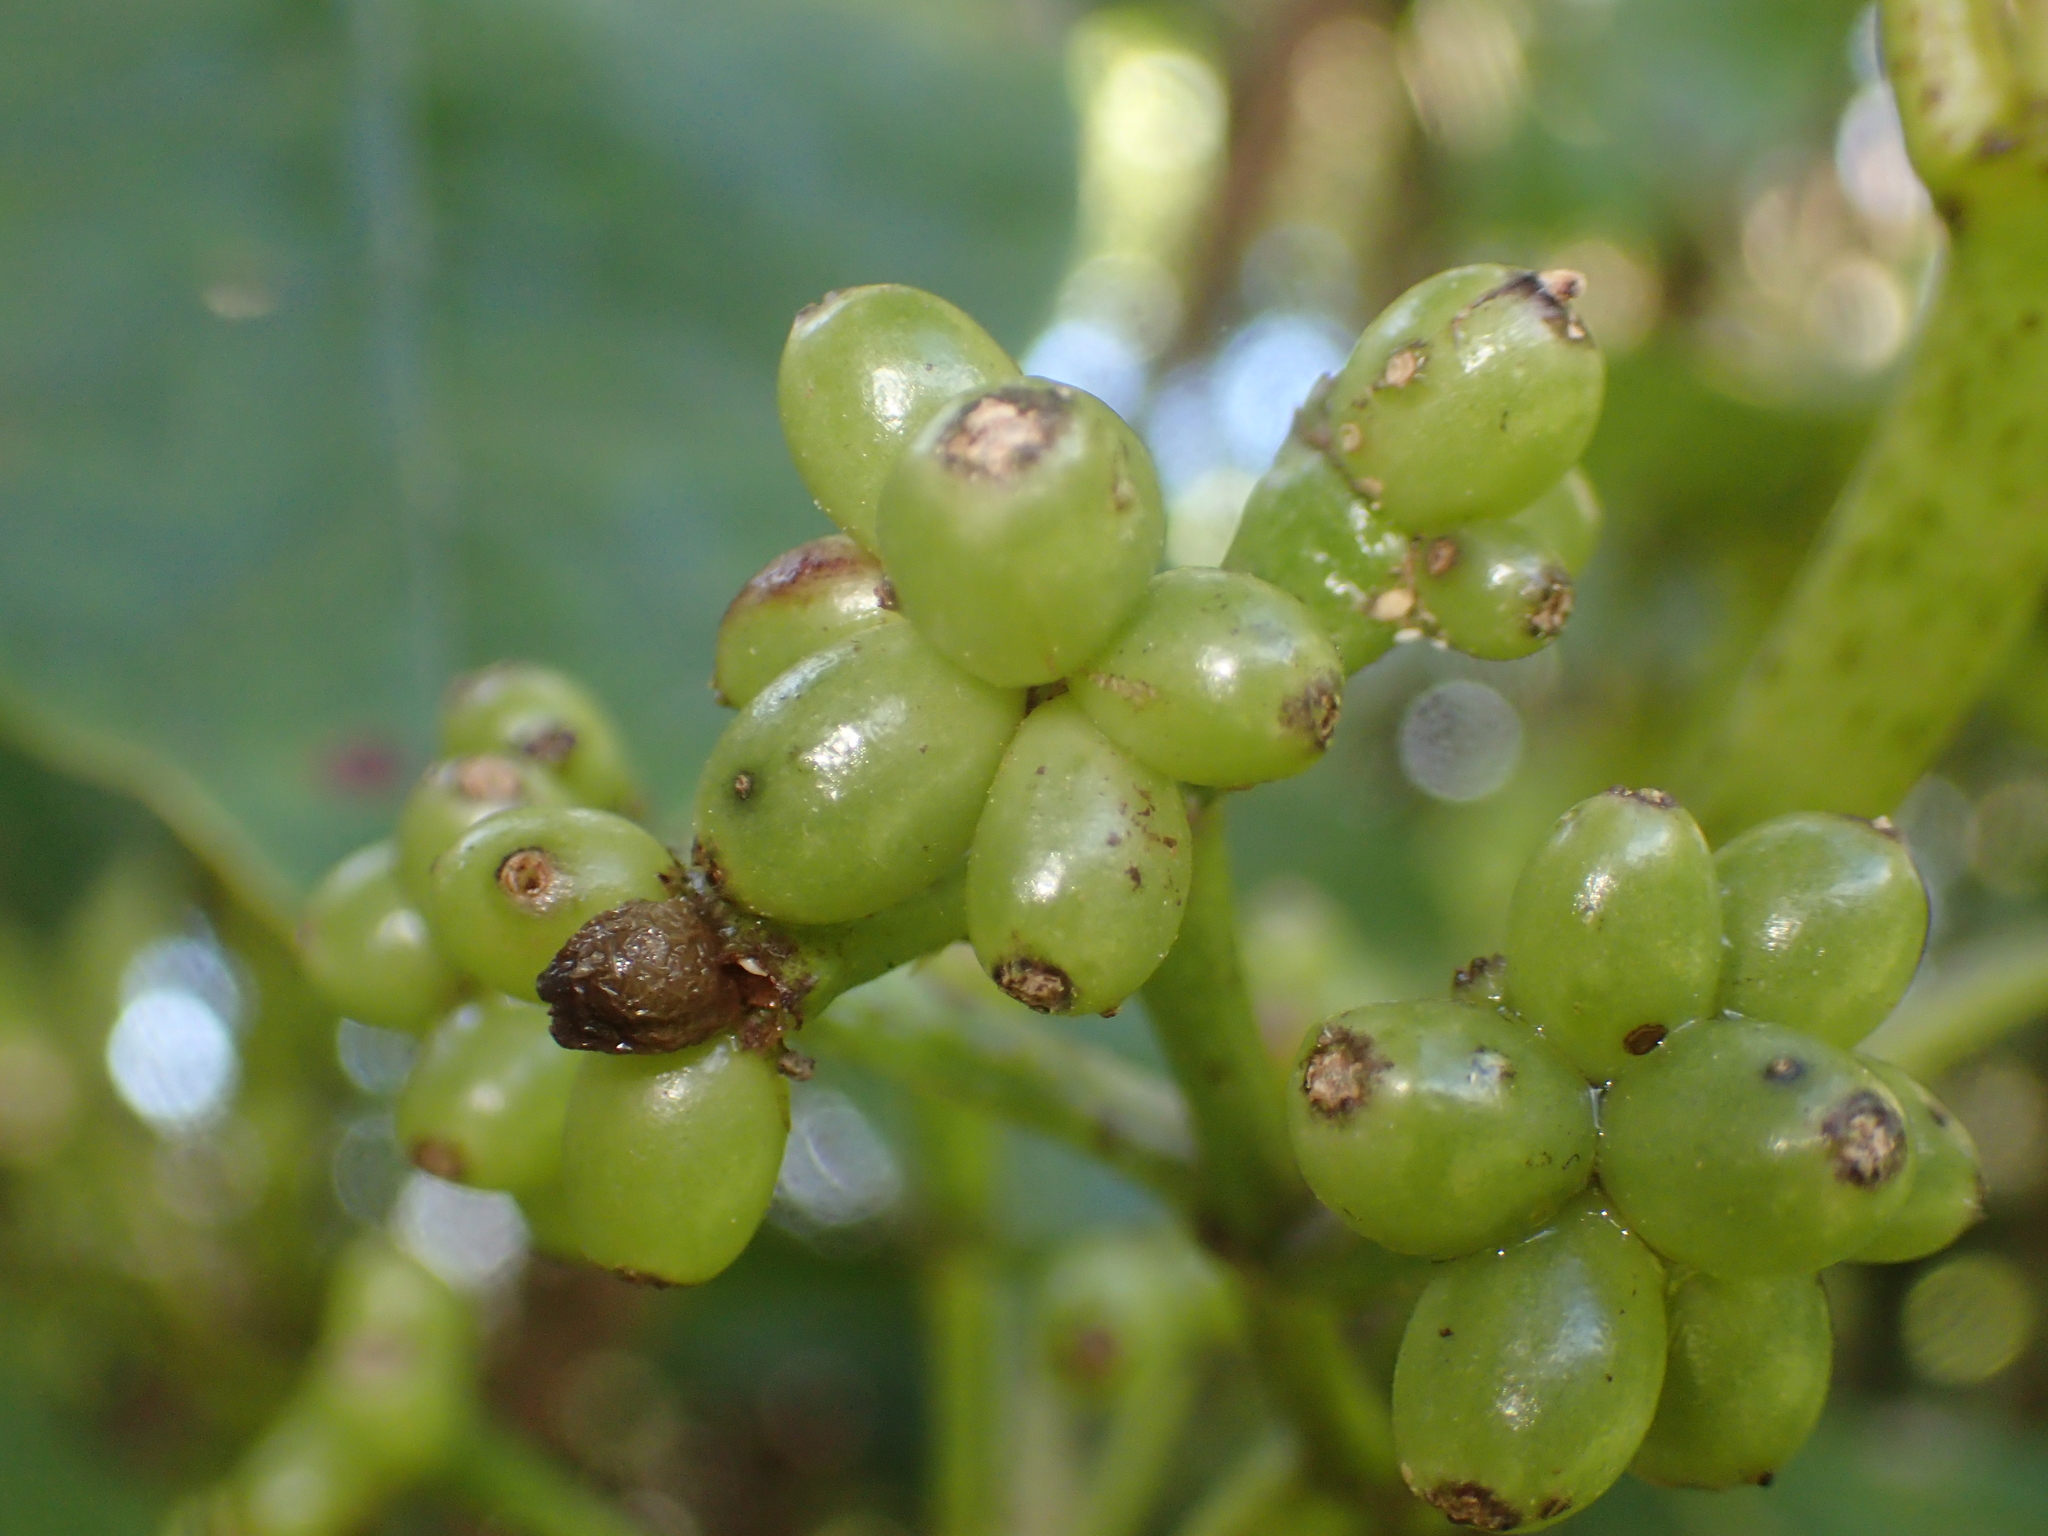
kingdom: Plantae
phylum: Tracheophyta
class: Magnoliopsida
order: Gentianales
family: Rubiaceae
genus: Coprosma
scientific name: Coprosma autumnalis
